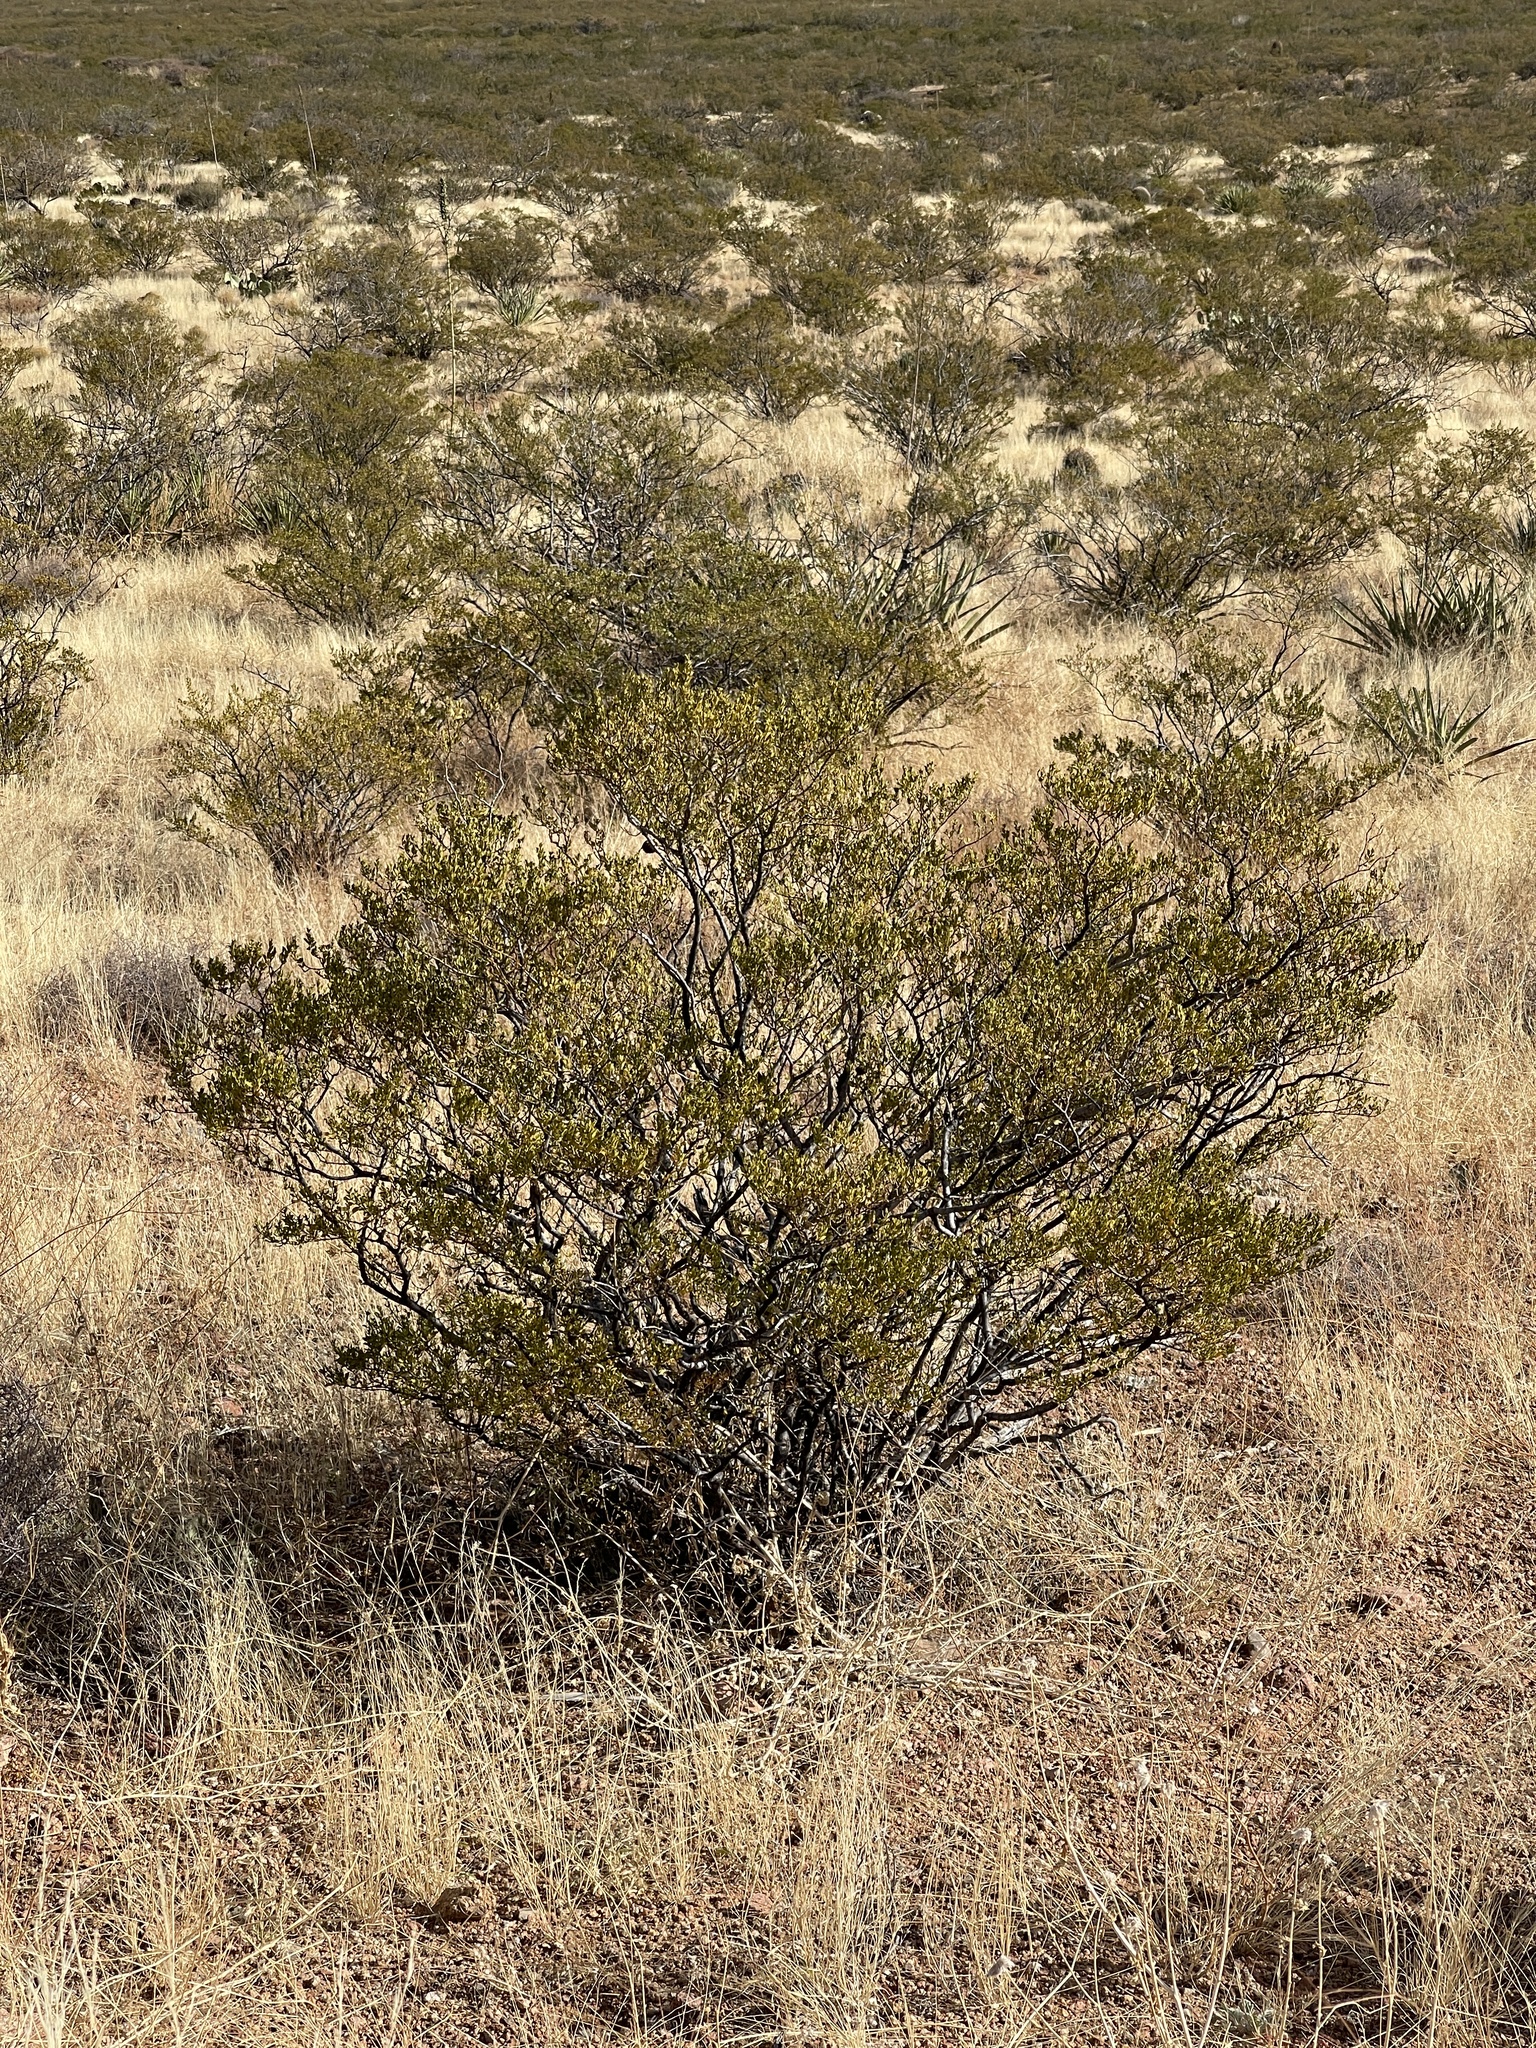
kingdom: Plantae
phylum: Tracheophyta
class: Magnoliopsida
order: Zygophyllales
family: Zygophyllaceae
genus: Larrea
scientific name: Larrea tridentata
